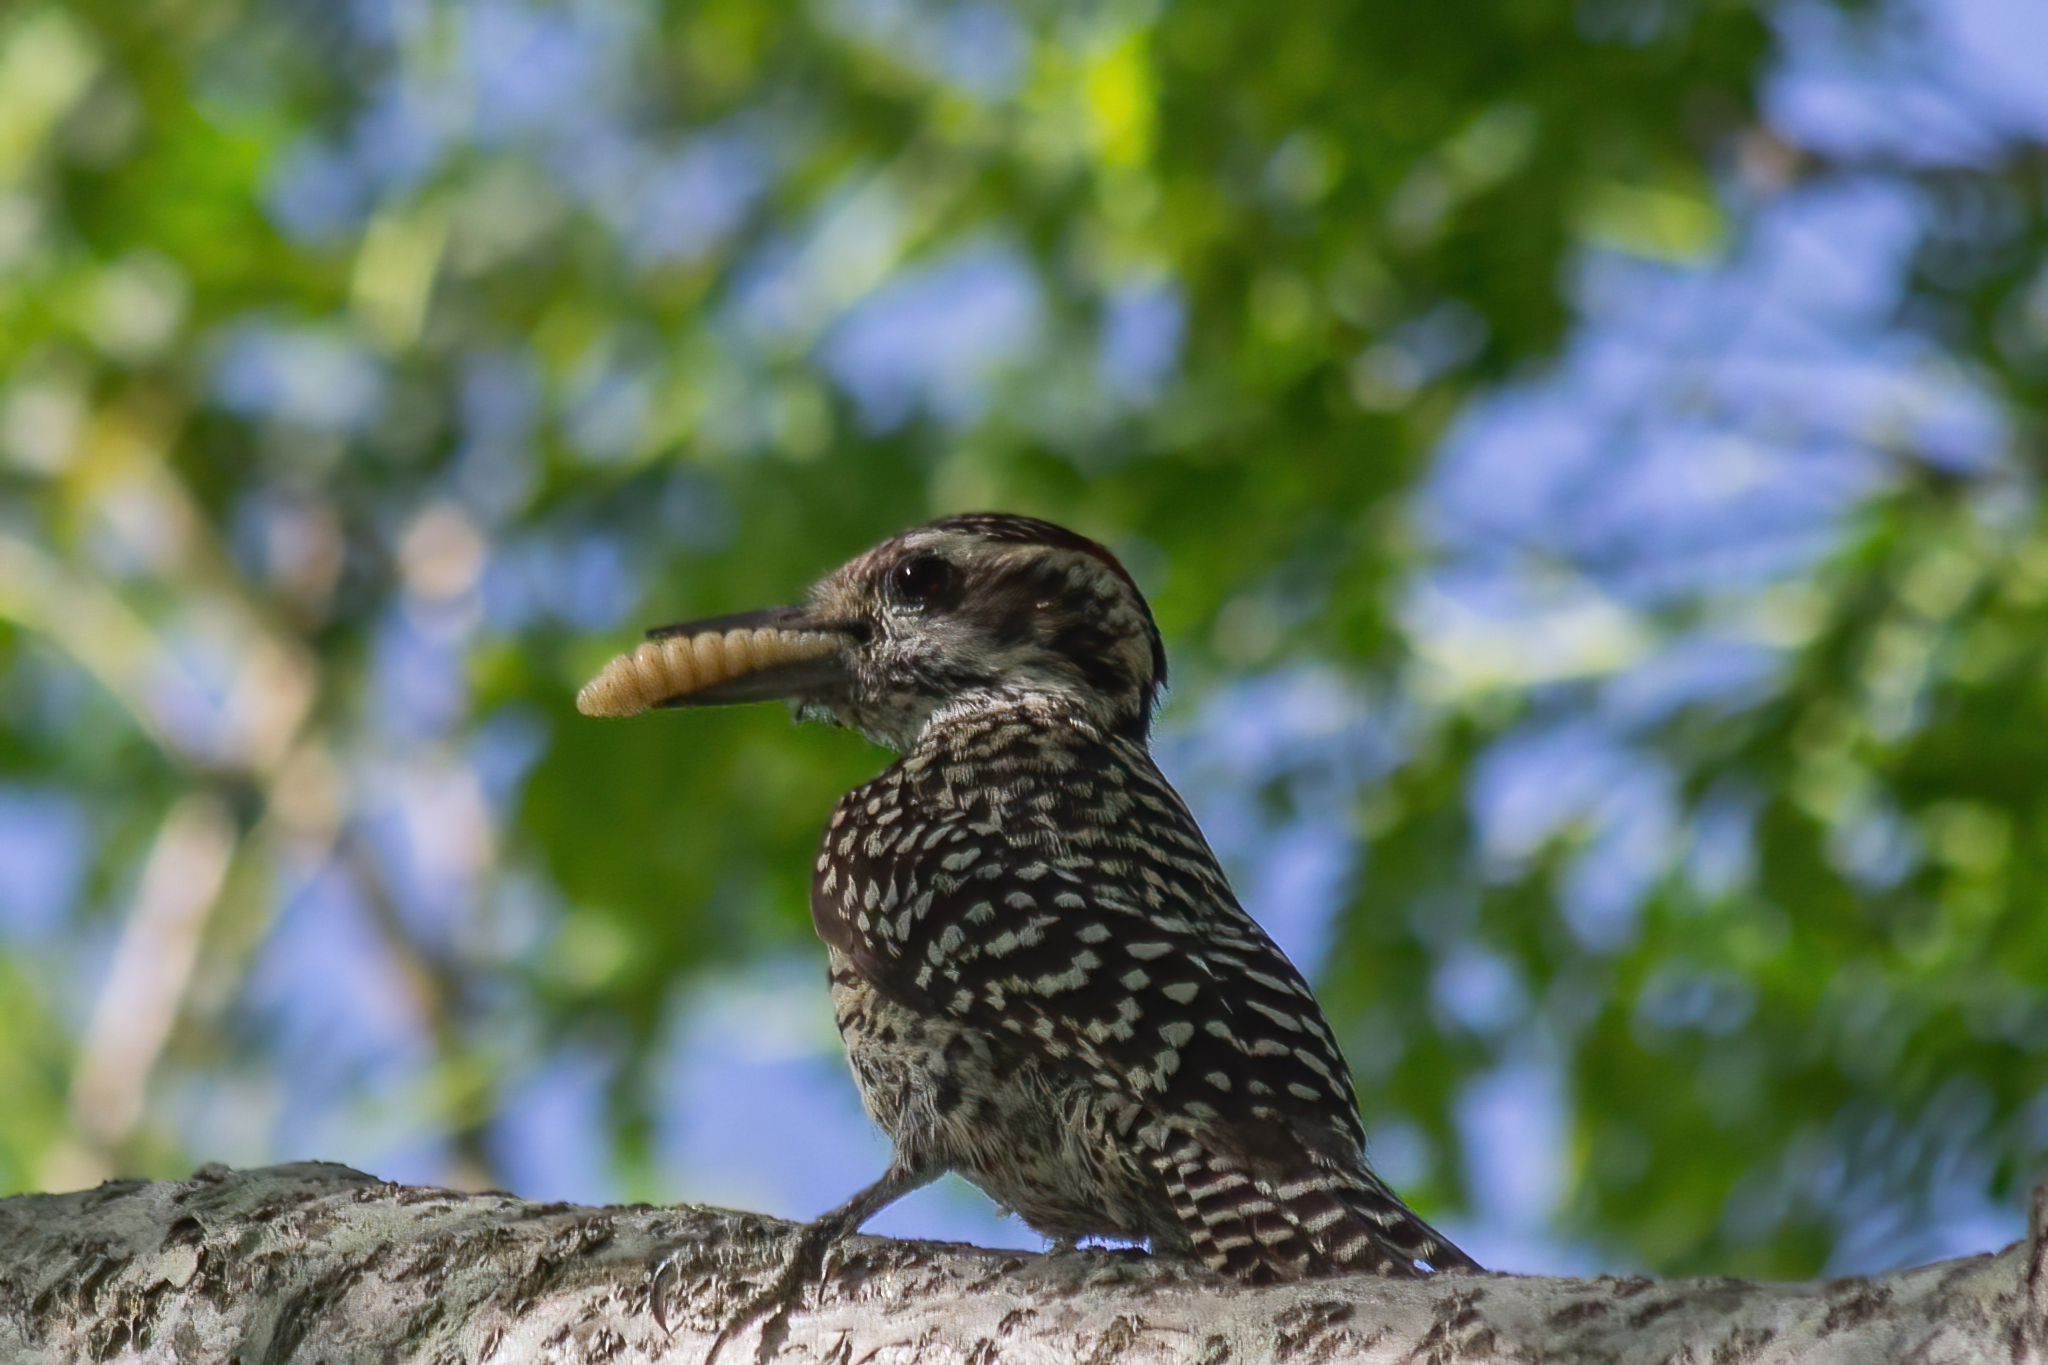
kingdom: Animalia
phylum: Chordata
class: Aves
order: Piciformes
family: Picidae
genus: Veniliornis
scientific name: Veniliornis mixtus
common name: Checkered woodpecker
